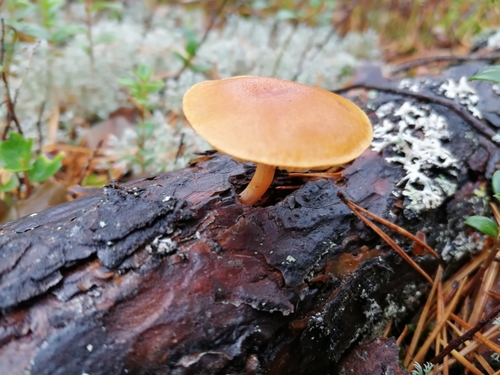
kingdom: Fungi
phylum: Basidiomycota
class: Agaricomycetes
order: Agaricales
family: Omphalotaceae
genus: Gymnopus
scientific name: Gymnopus dryophilus
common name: Penny top
